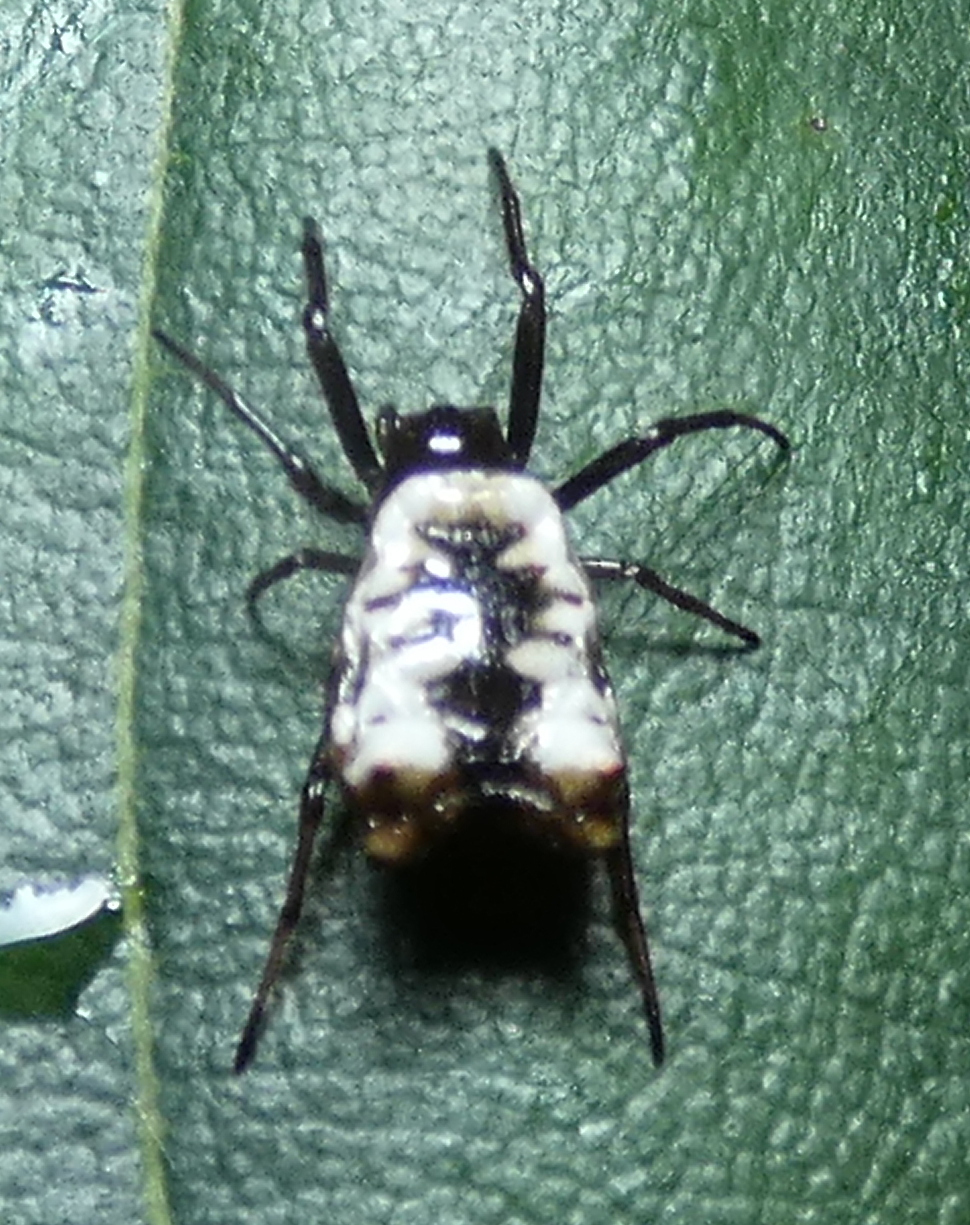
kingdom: Animalia
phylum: Arthropoda
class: Arachnida
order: Araneae
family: Araneidae
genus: Micrathena
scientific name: Micrathena patruelis
